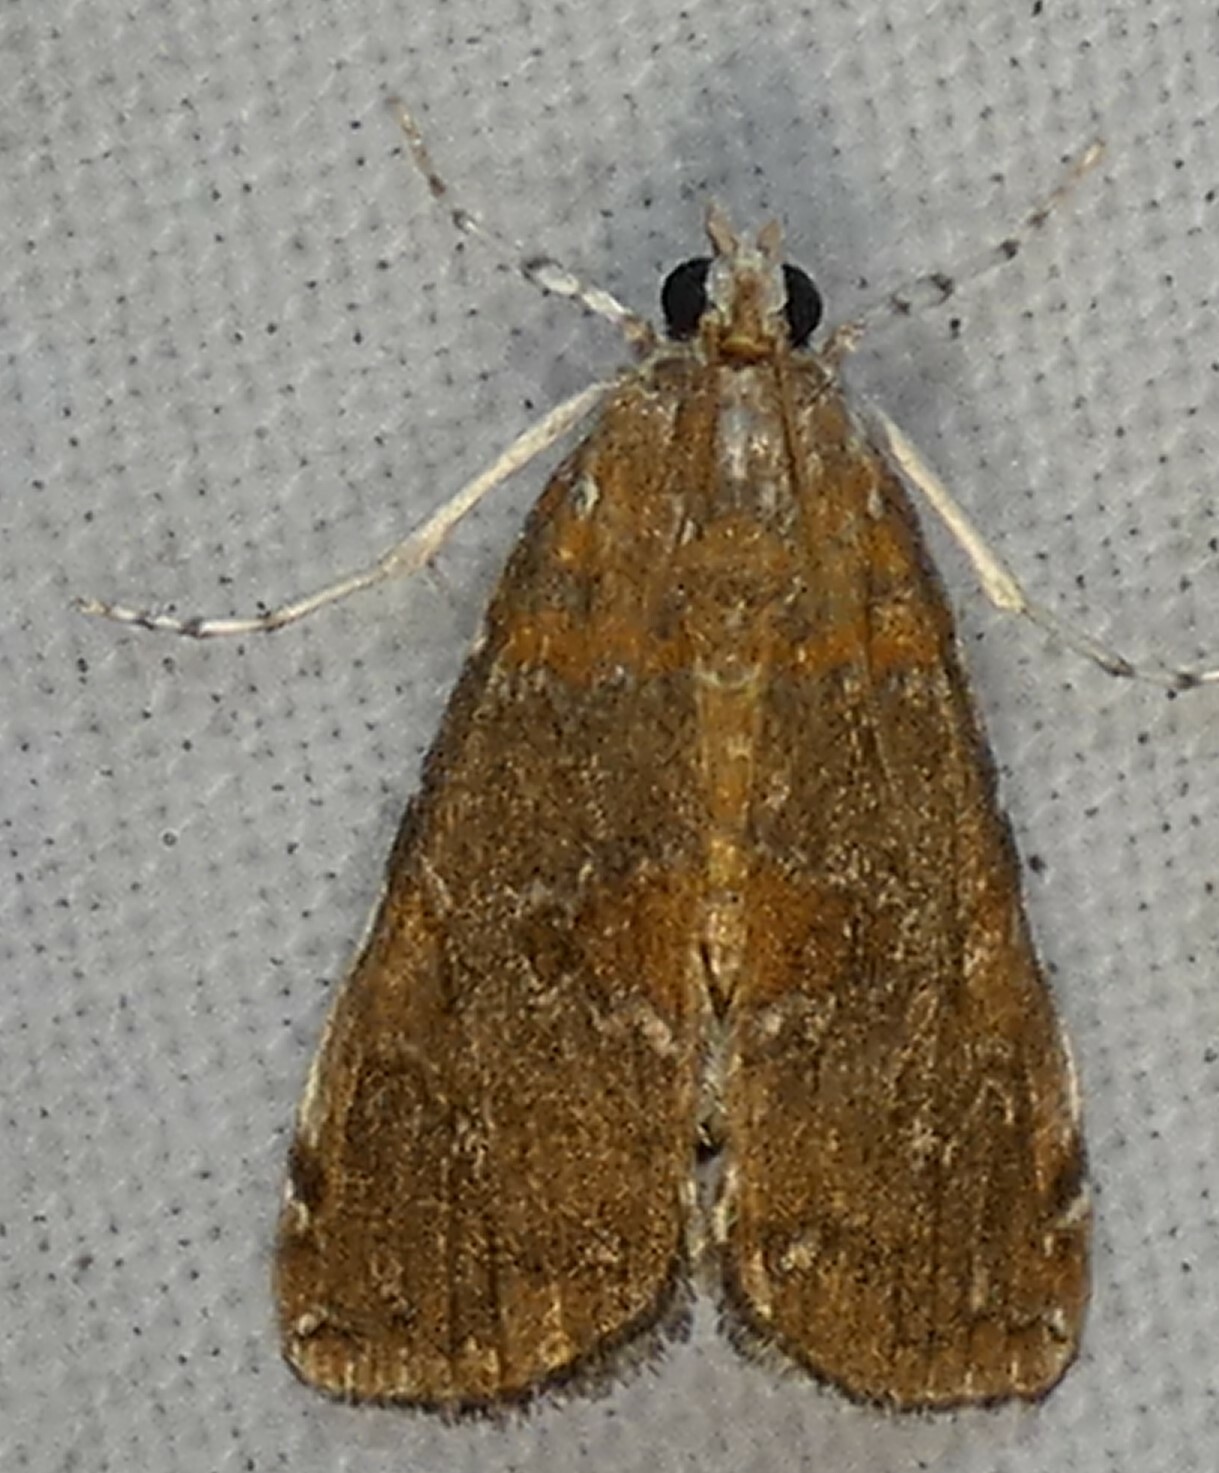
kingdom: Animalia
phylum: Arthropoda
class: Insecta
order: Lepidoptera
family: Crambidae
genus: Elophila
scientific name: Elophila gyralis
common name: Waterlily borer moth
